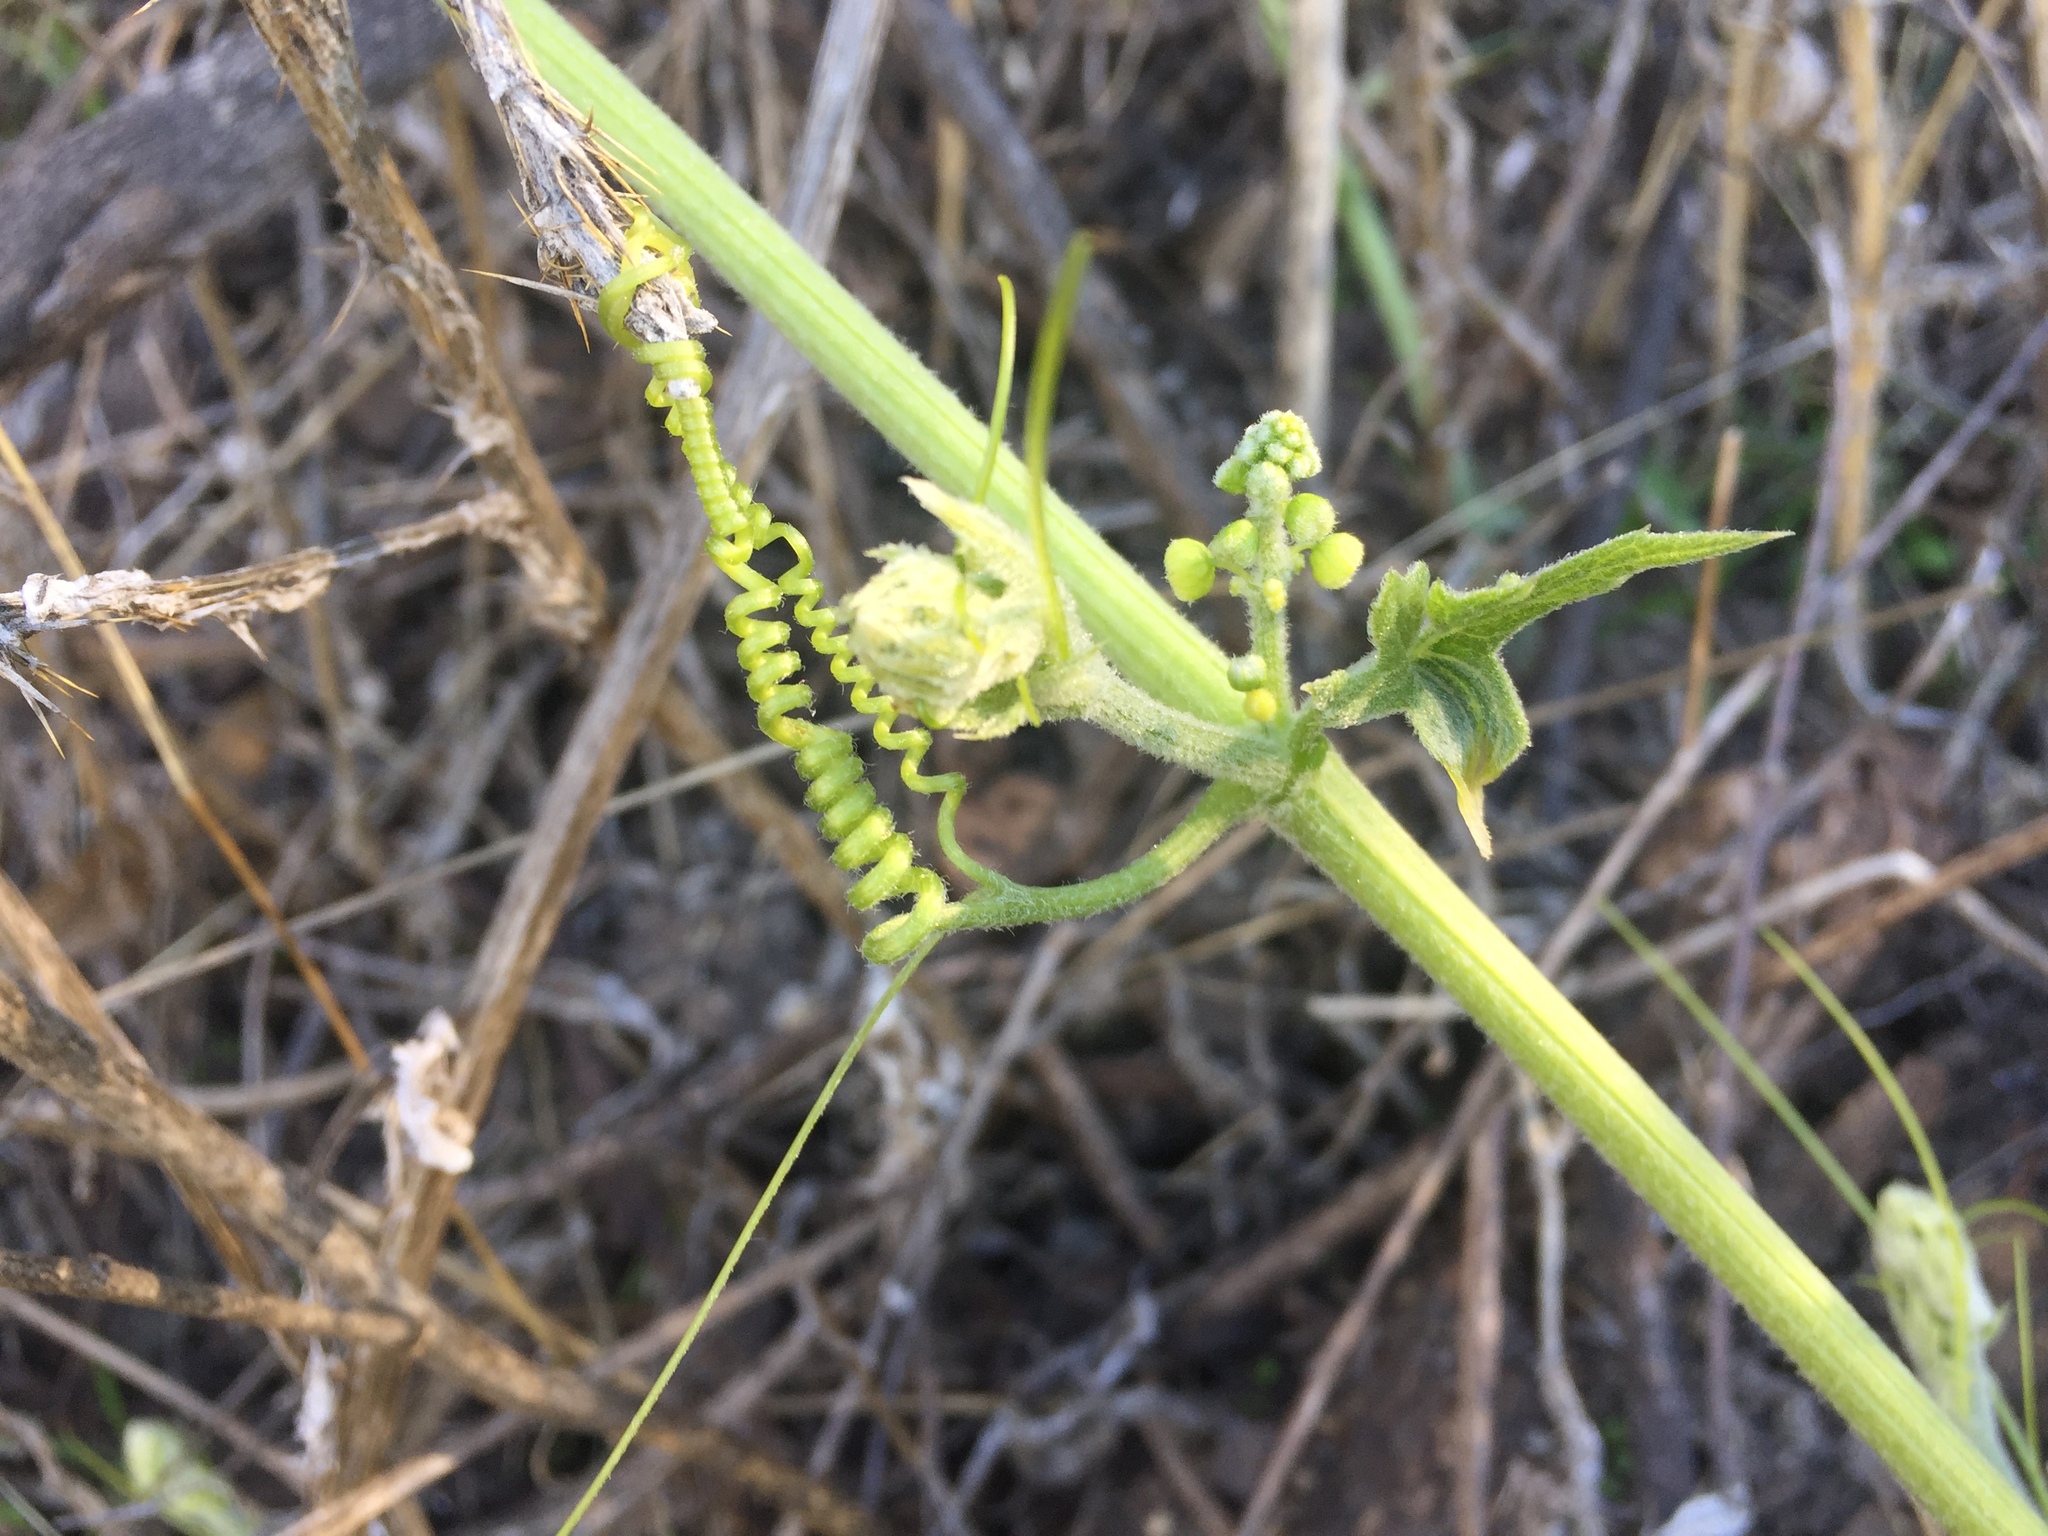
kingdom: Plantae
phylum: Tracheophyta
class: Magnoliopsida
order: Cucurbitales
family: Cucurbitaceae
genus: Marah
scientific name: Marah fabacea
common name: California manroot
